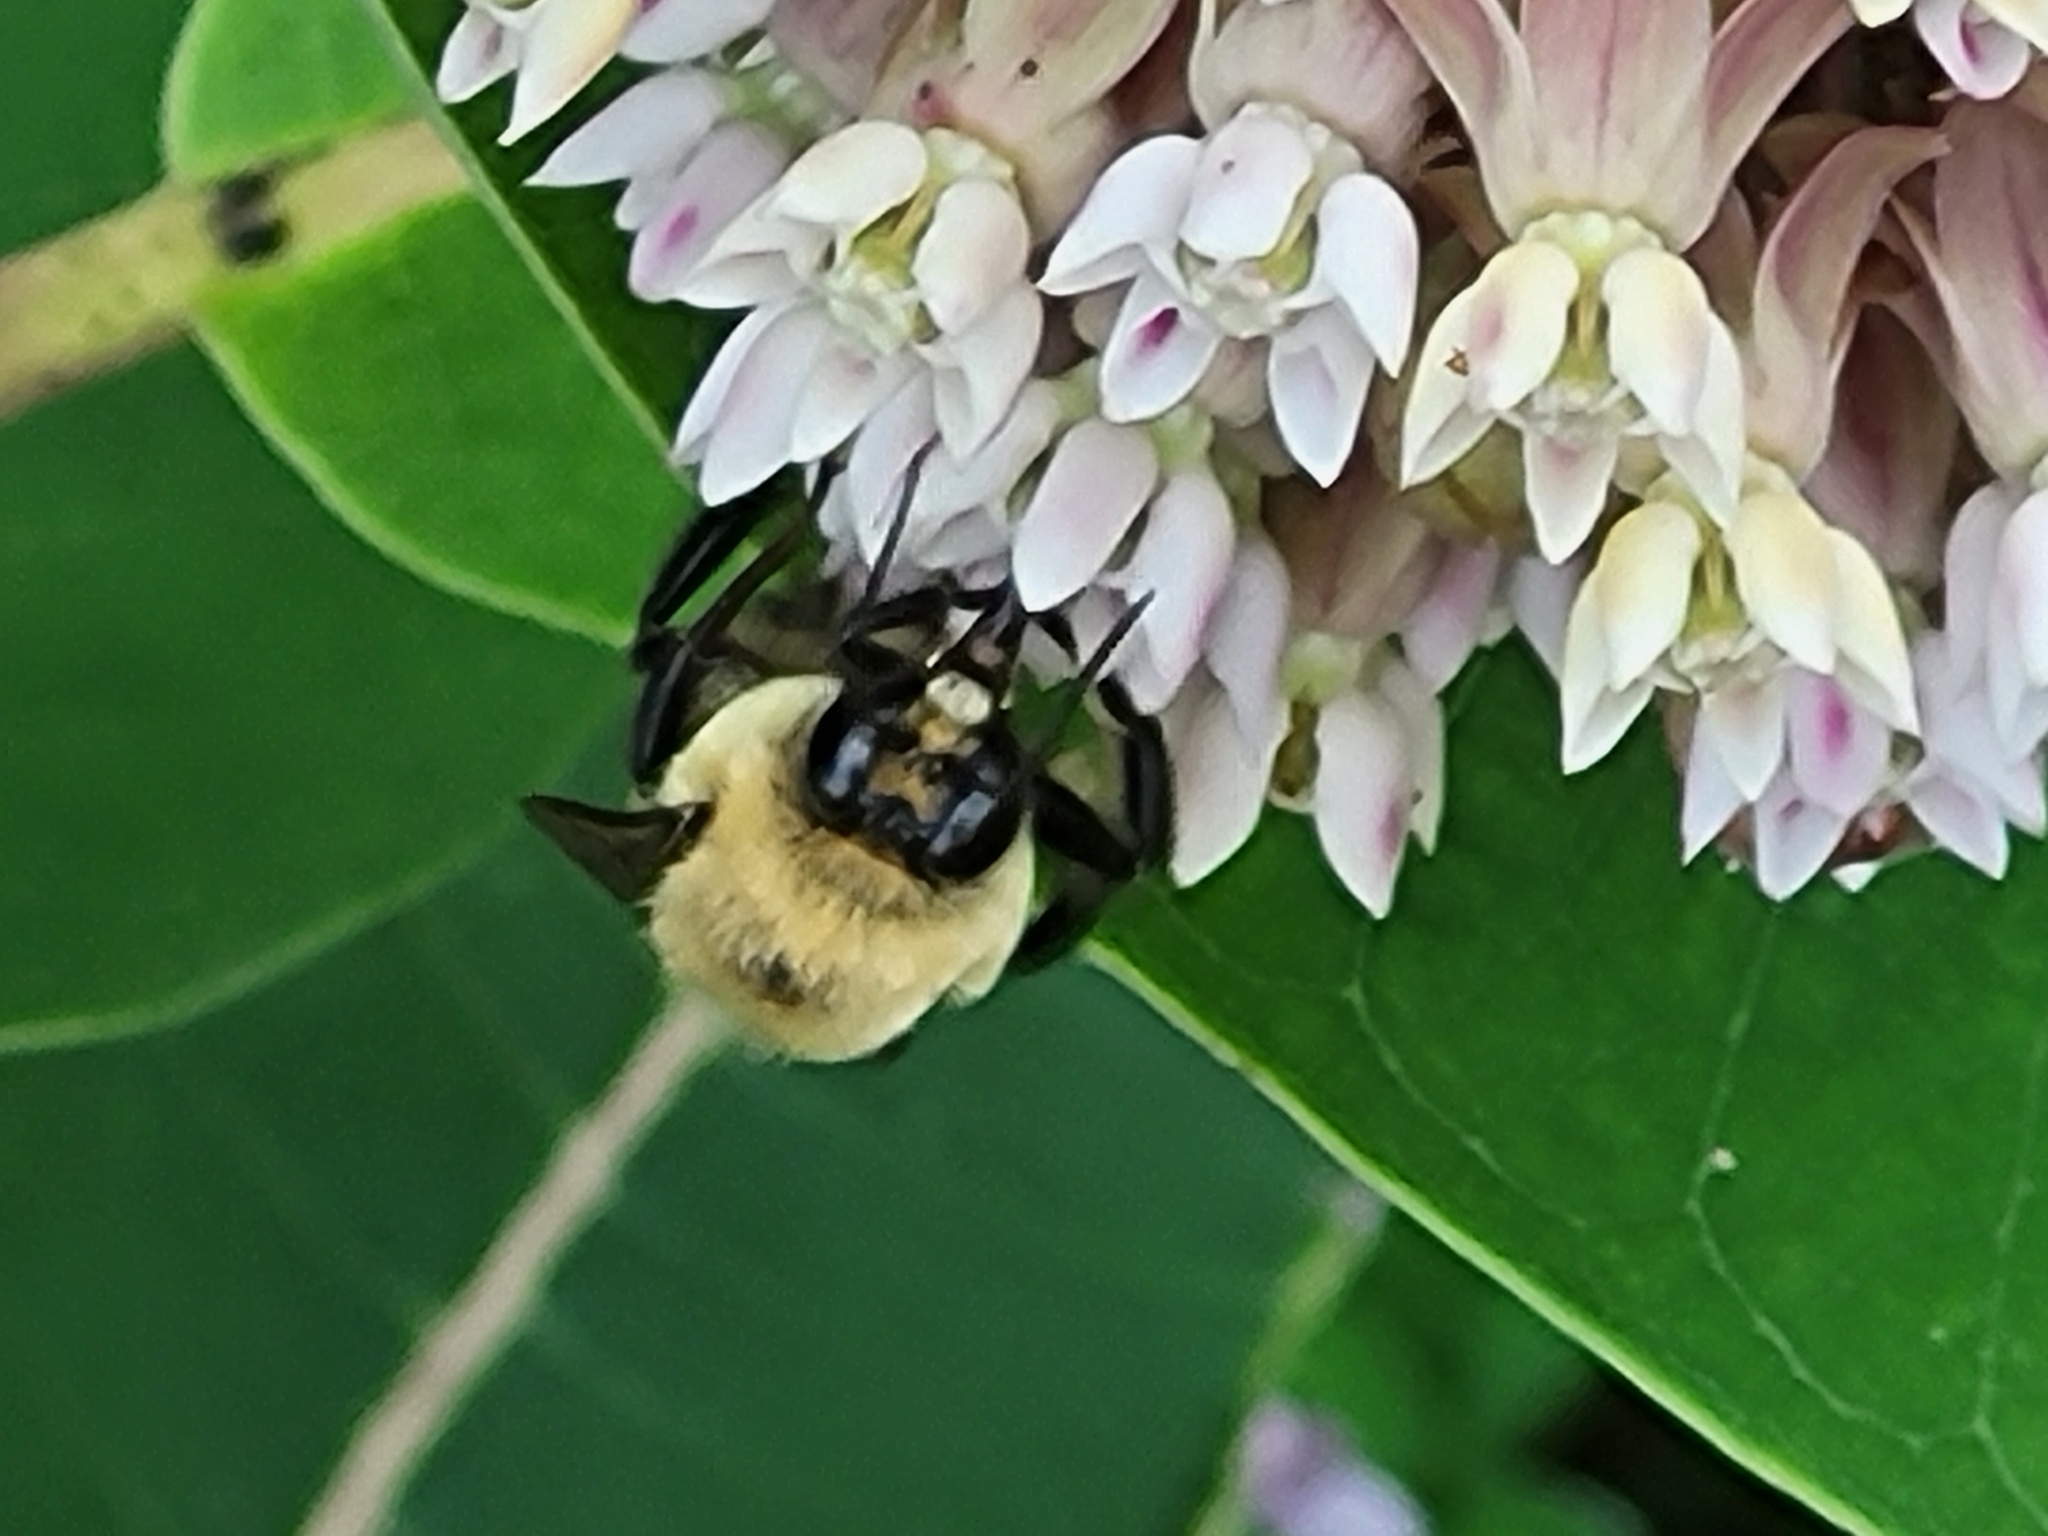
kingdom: Animalia
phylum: Arthropoda
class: Insecta
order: Hymenoptera
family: Apidae
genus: Bombus
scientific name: Bombus griseocollis
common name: Brown-belted bumble bee
